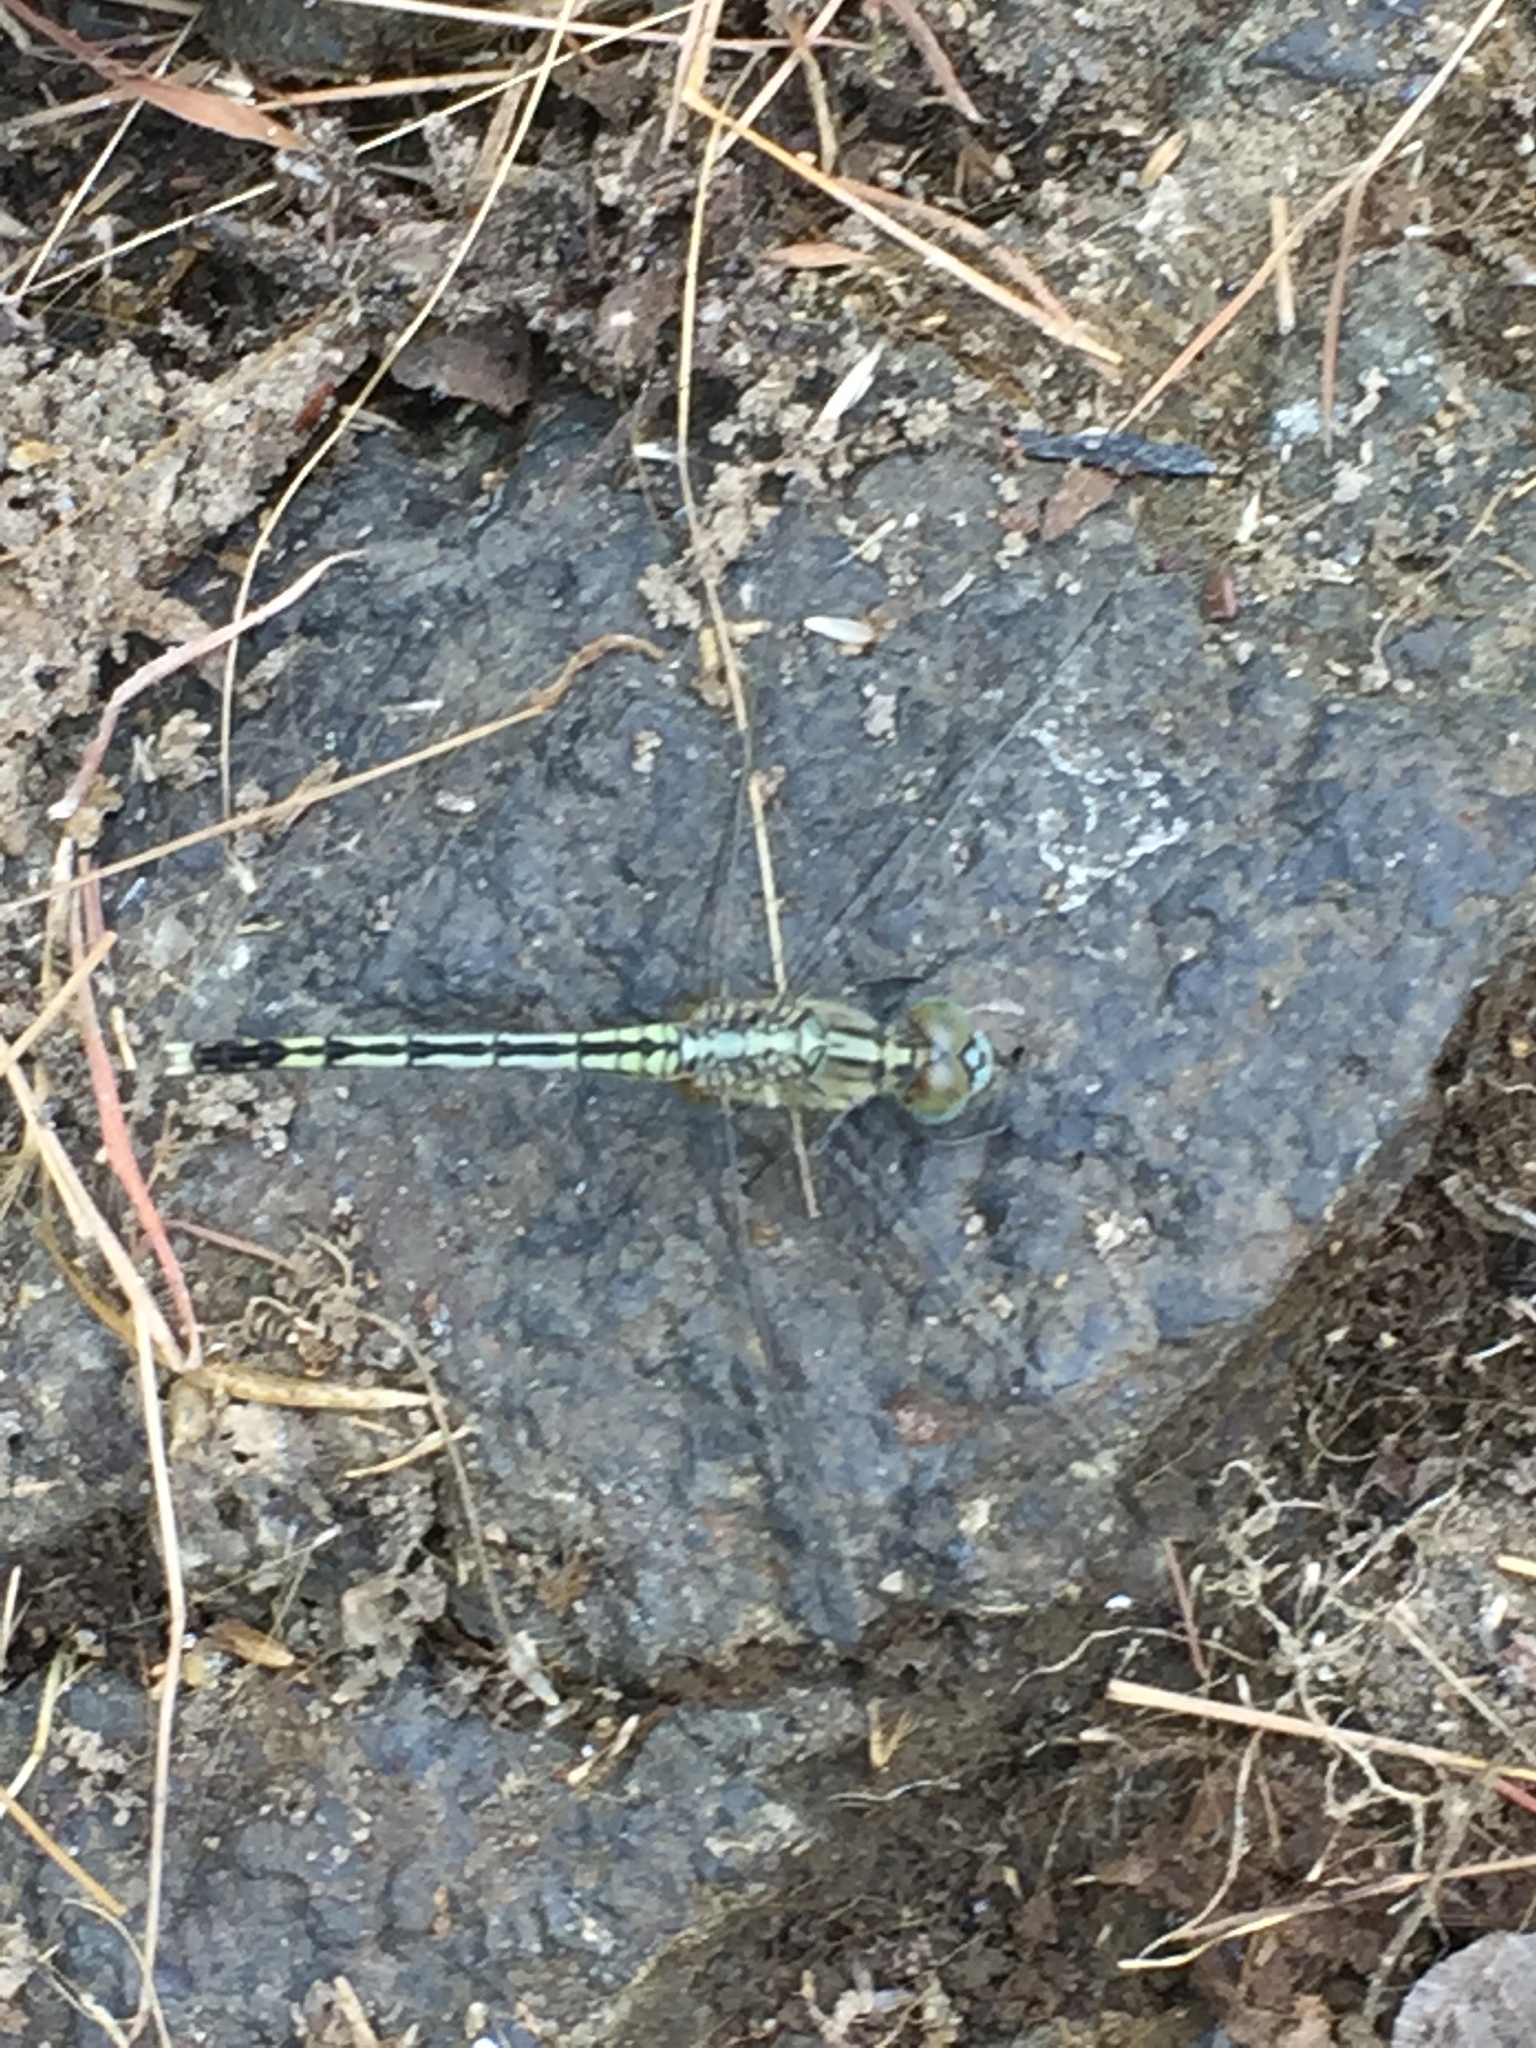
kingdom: Animalia
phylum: Arthropoda
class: Insecta
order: Odonata
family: Libellulidae
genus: Diplacodes
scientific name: Diplacodes trivialis
